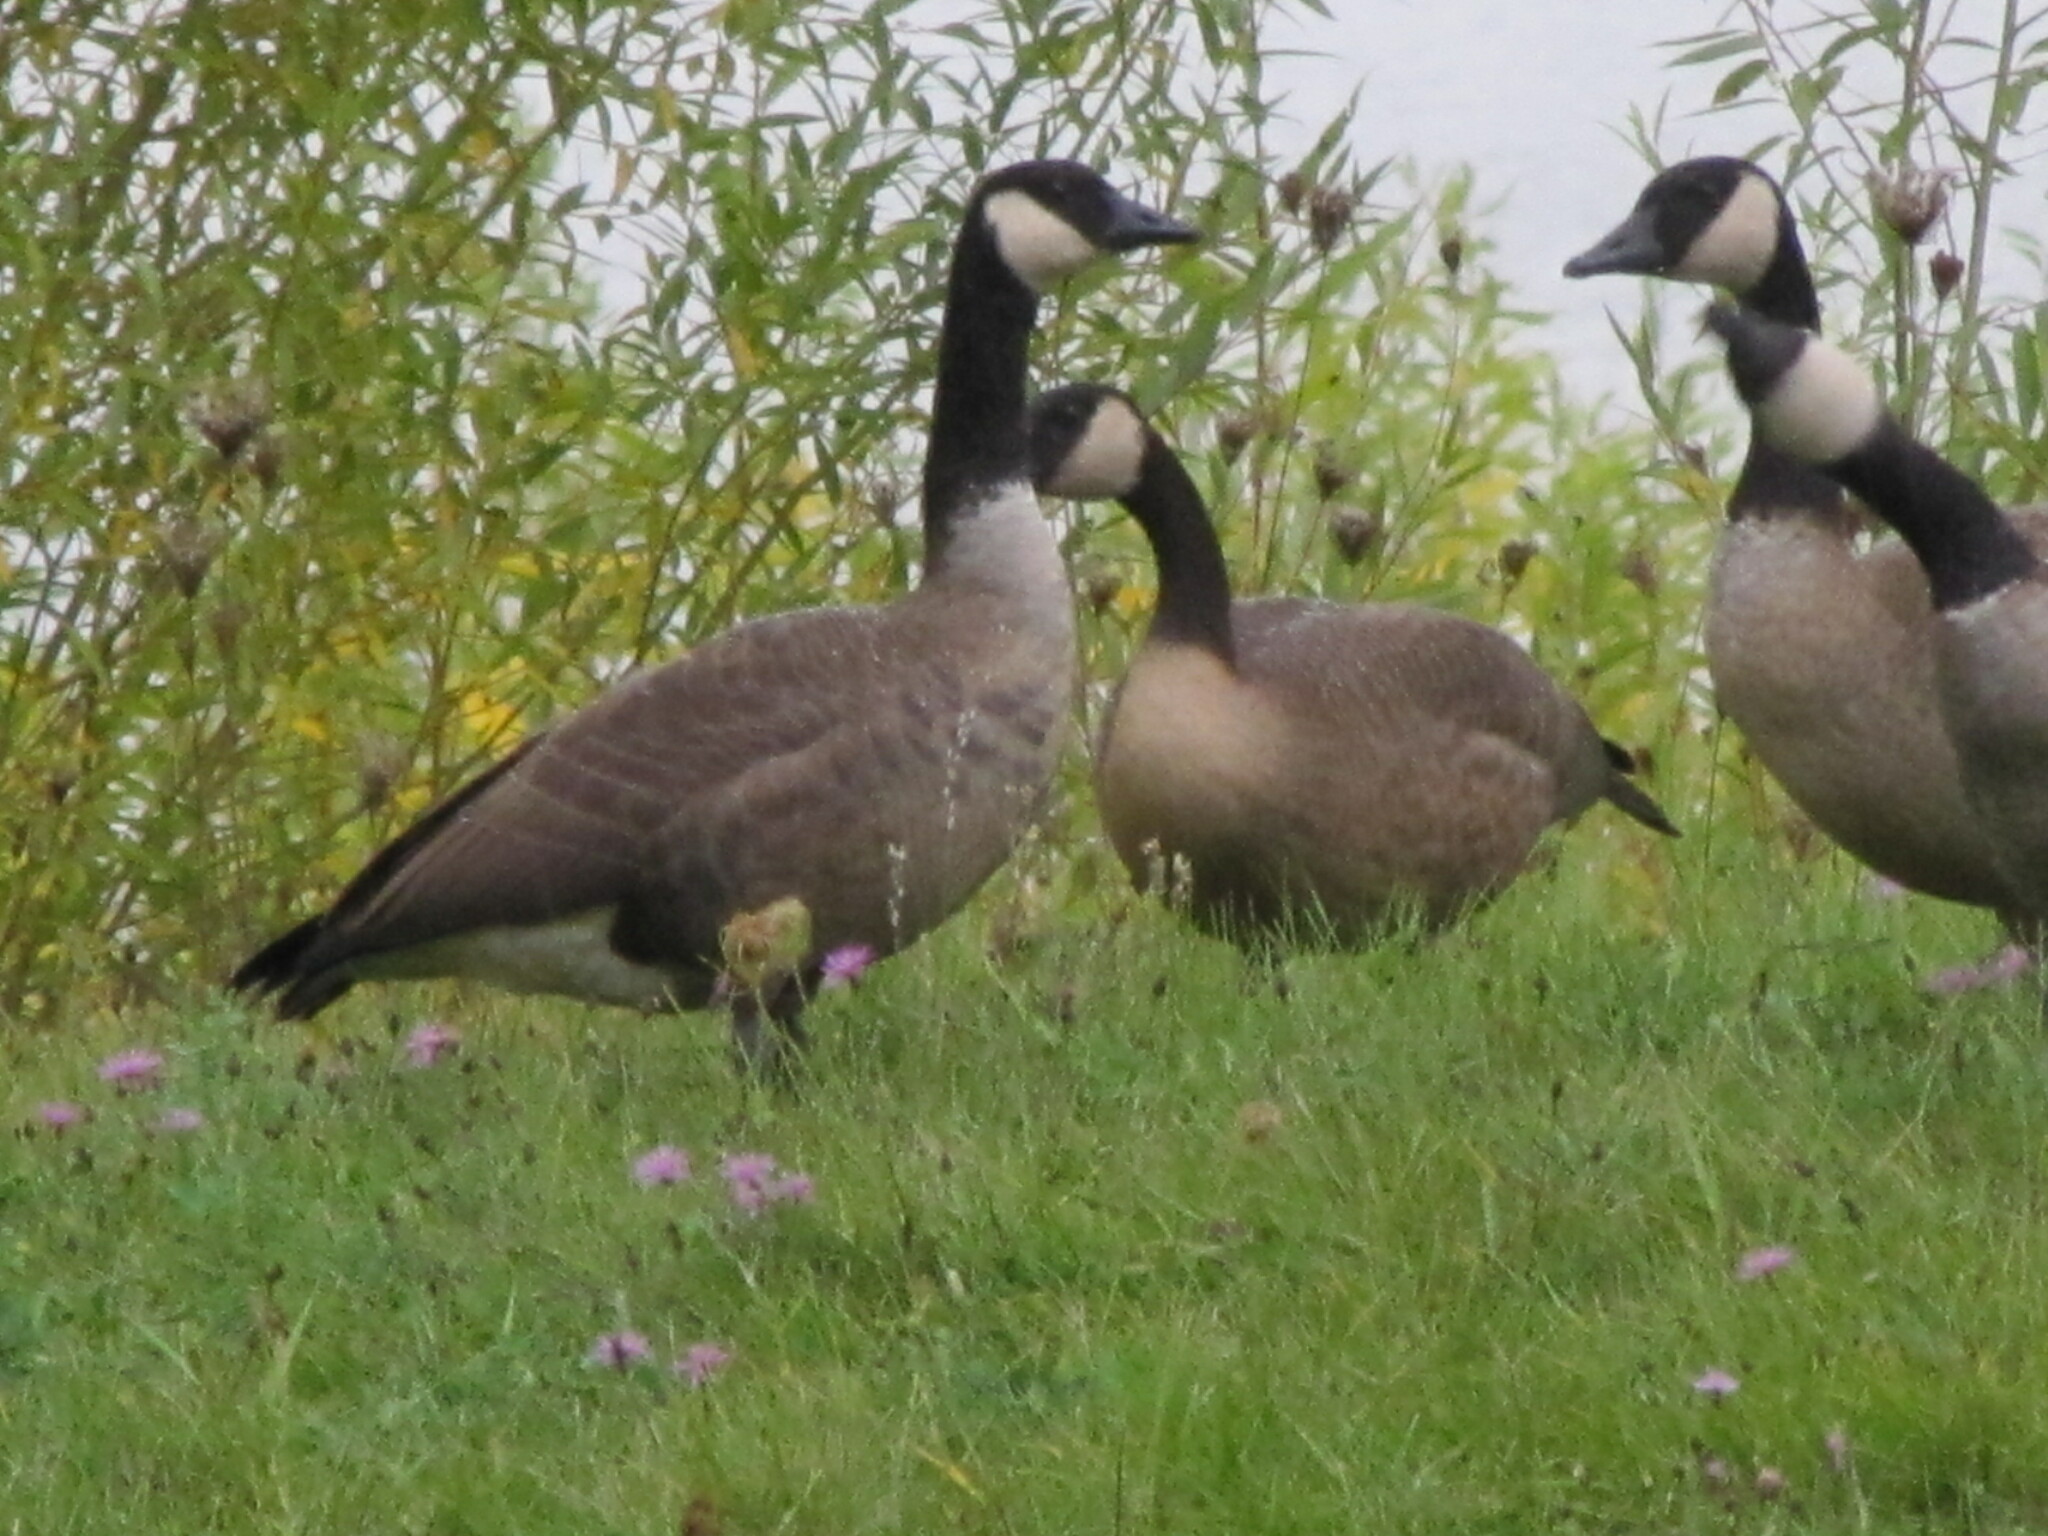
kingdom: Animalia
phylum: Chordata
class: Aves
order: Anseriformes
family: Anatidae
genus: Branta
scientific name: Branta canadensis
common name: Canada goose
